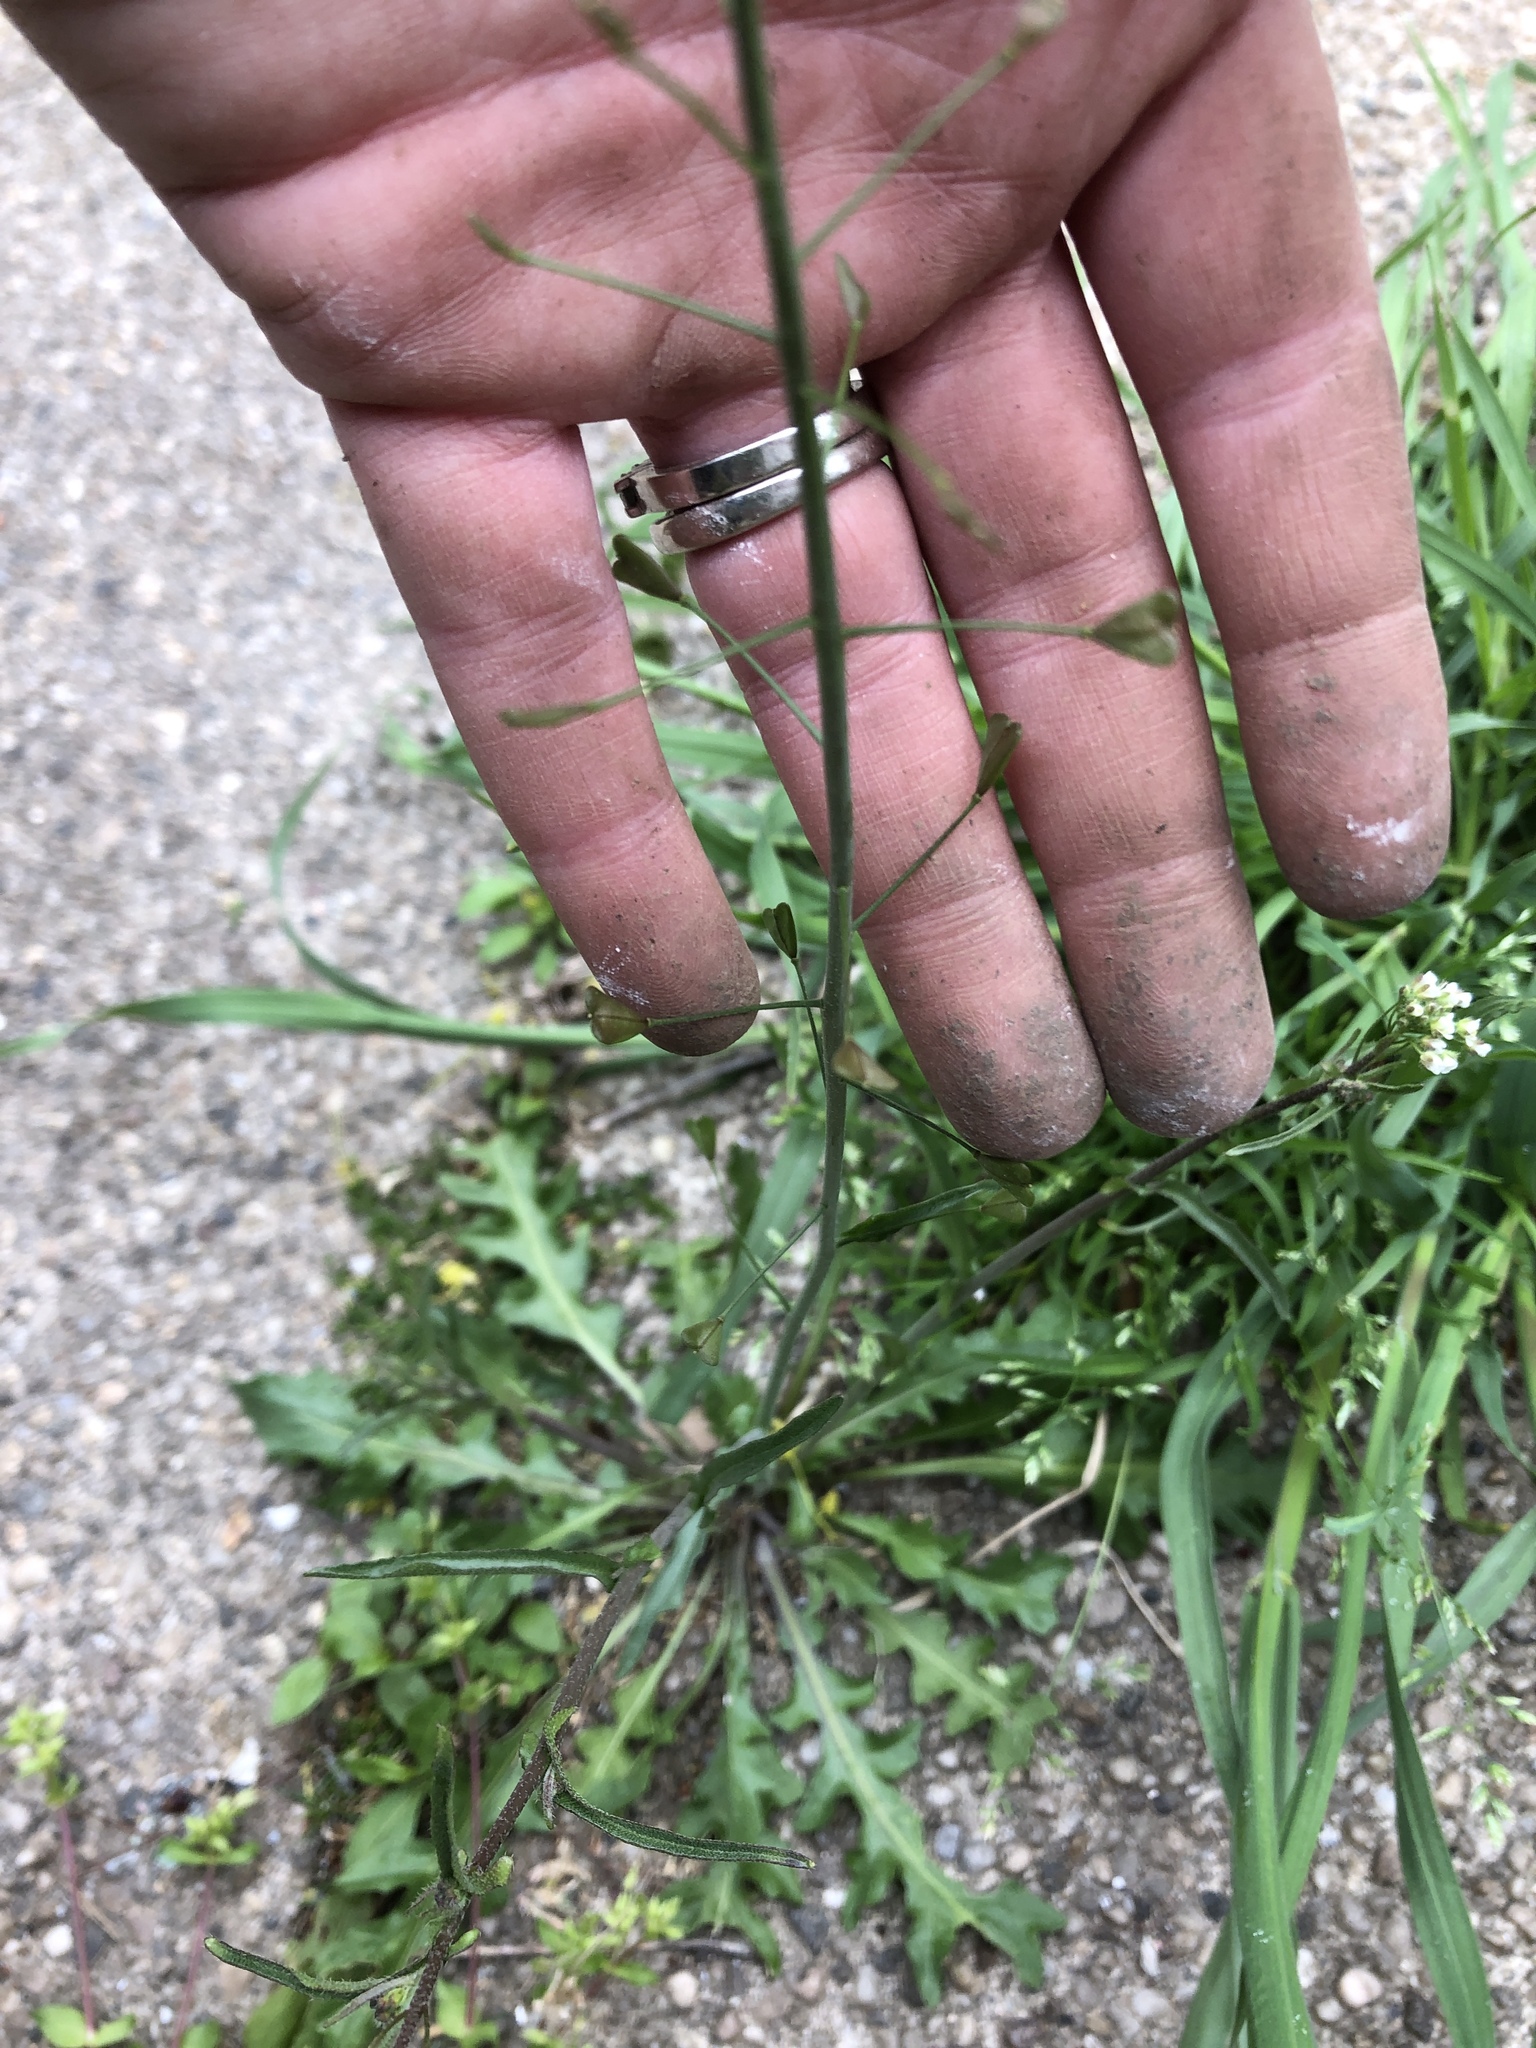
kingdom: Plantae
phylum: Tracheophyta
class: Magnoliopsida
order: Brassicales
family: Brassicaceae
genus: Capsella
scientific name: Capsella bursa-pastoris
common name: Shepherd's purse
